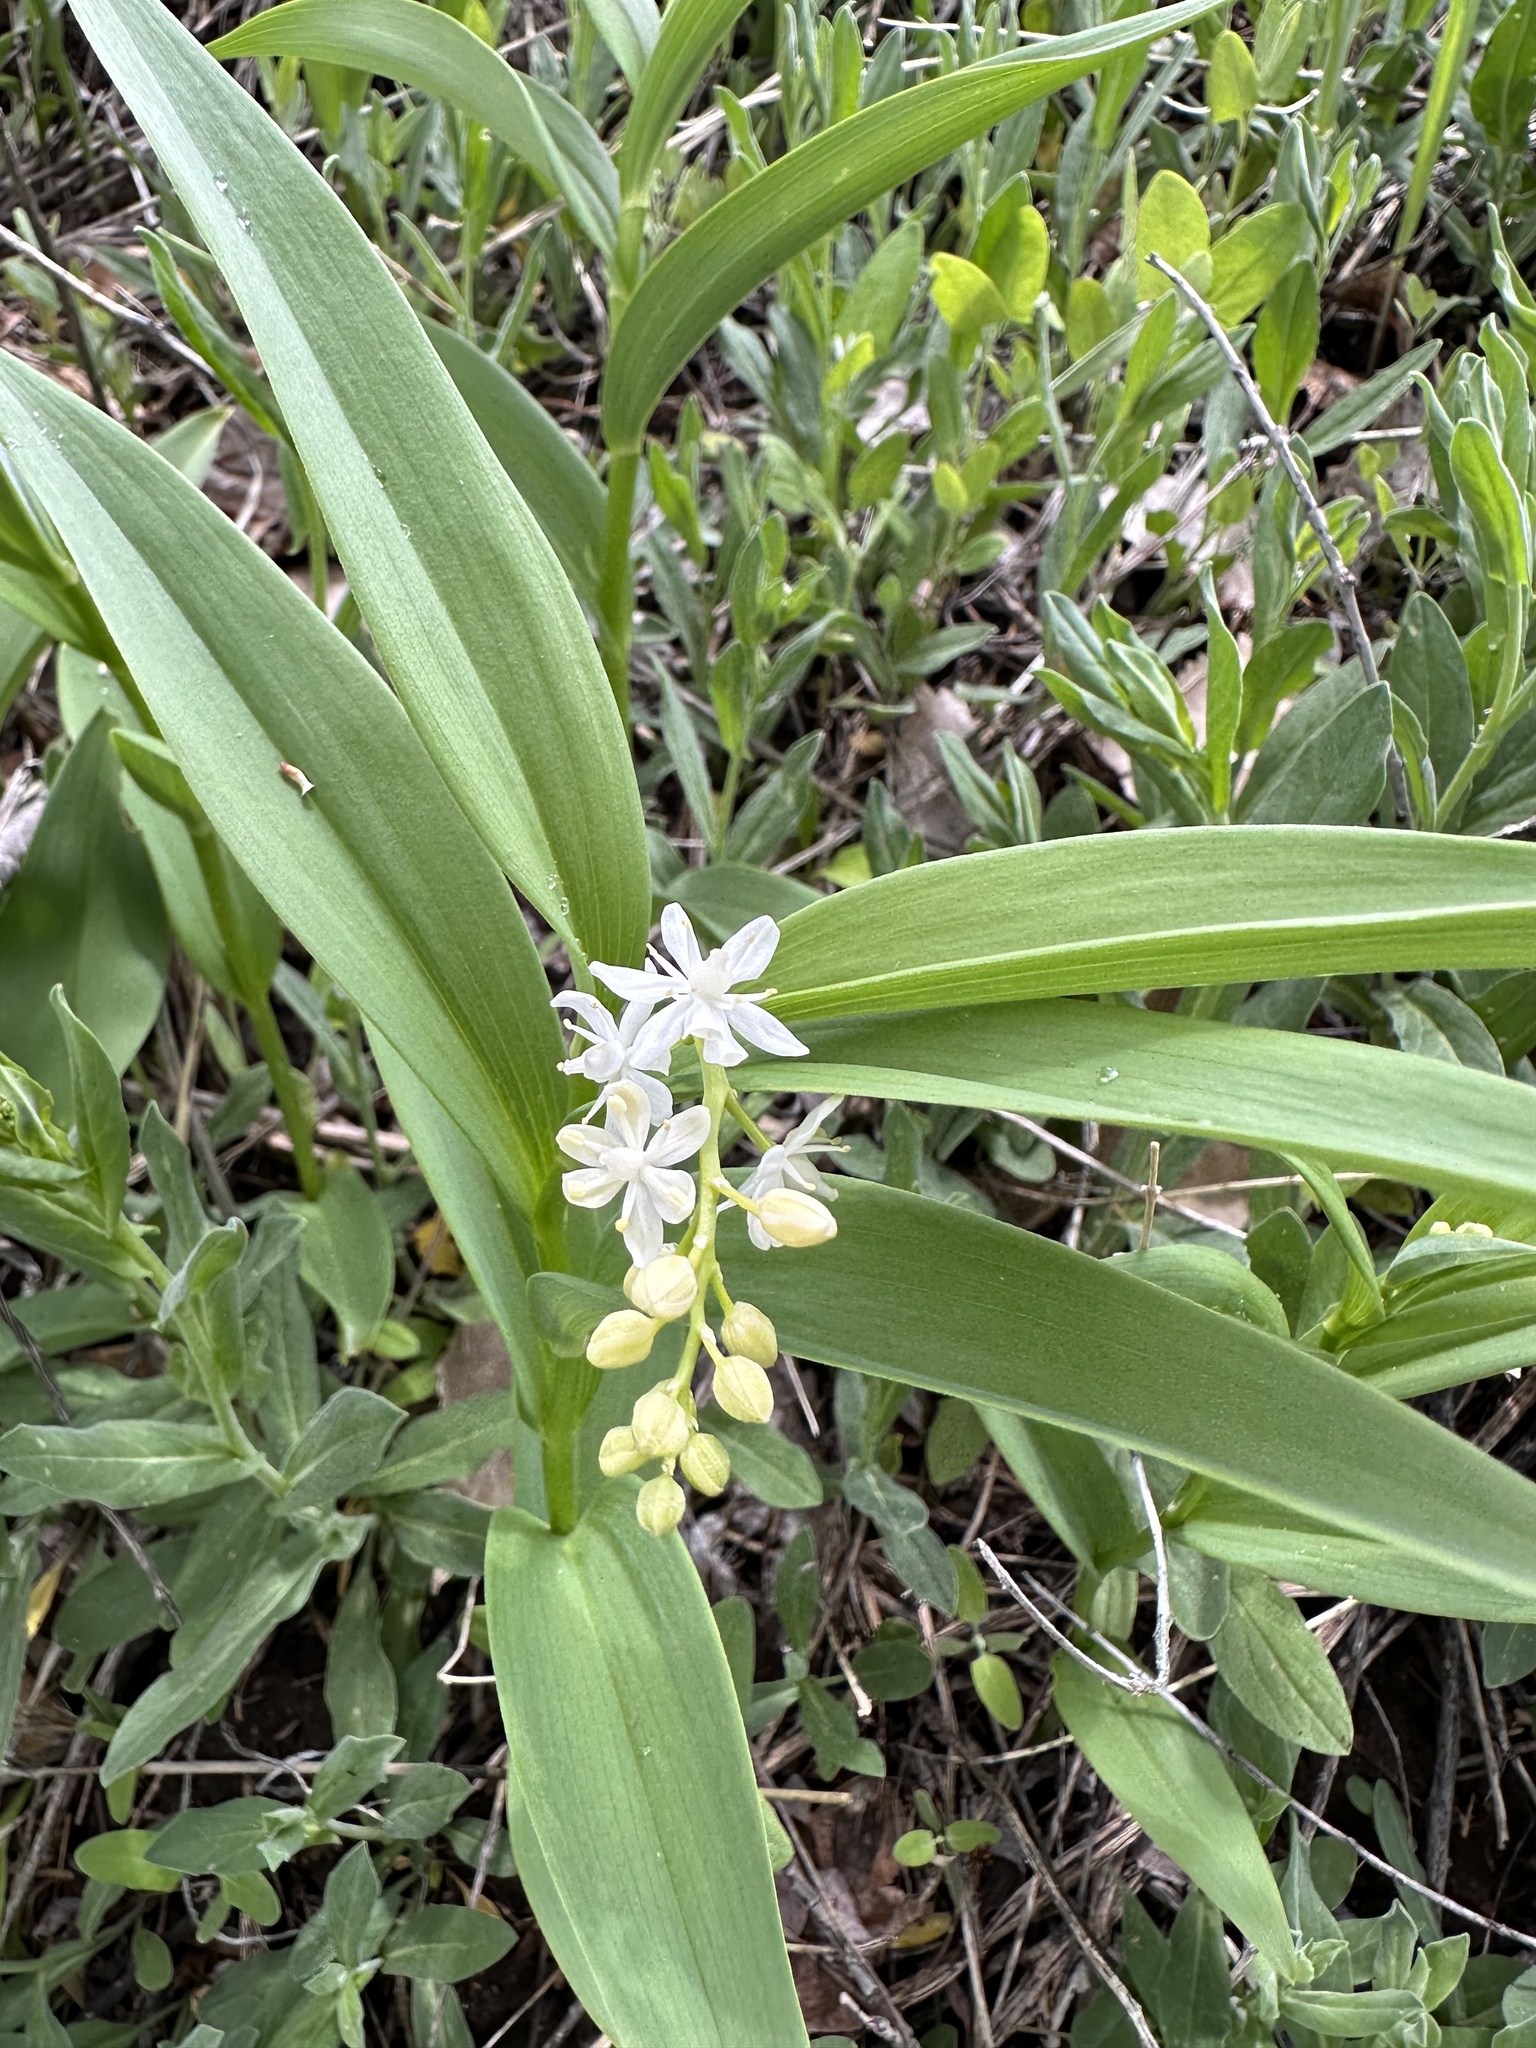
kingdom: Plantae
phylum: Tracheophyta
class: Liliopsida
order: Asparagales
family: Asparagaceae
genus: Maianthemum
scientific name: Maianthemum stellatum
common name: Little false solomon's seal
